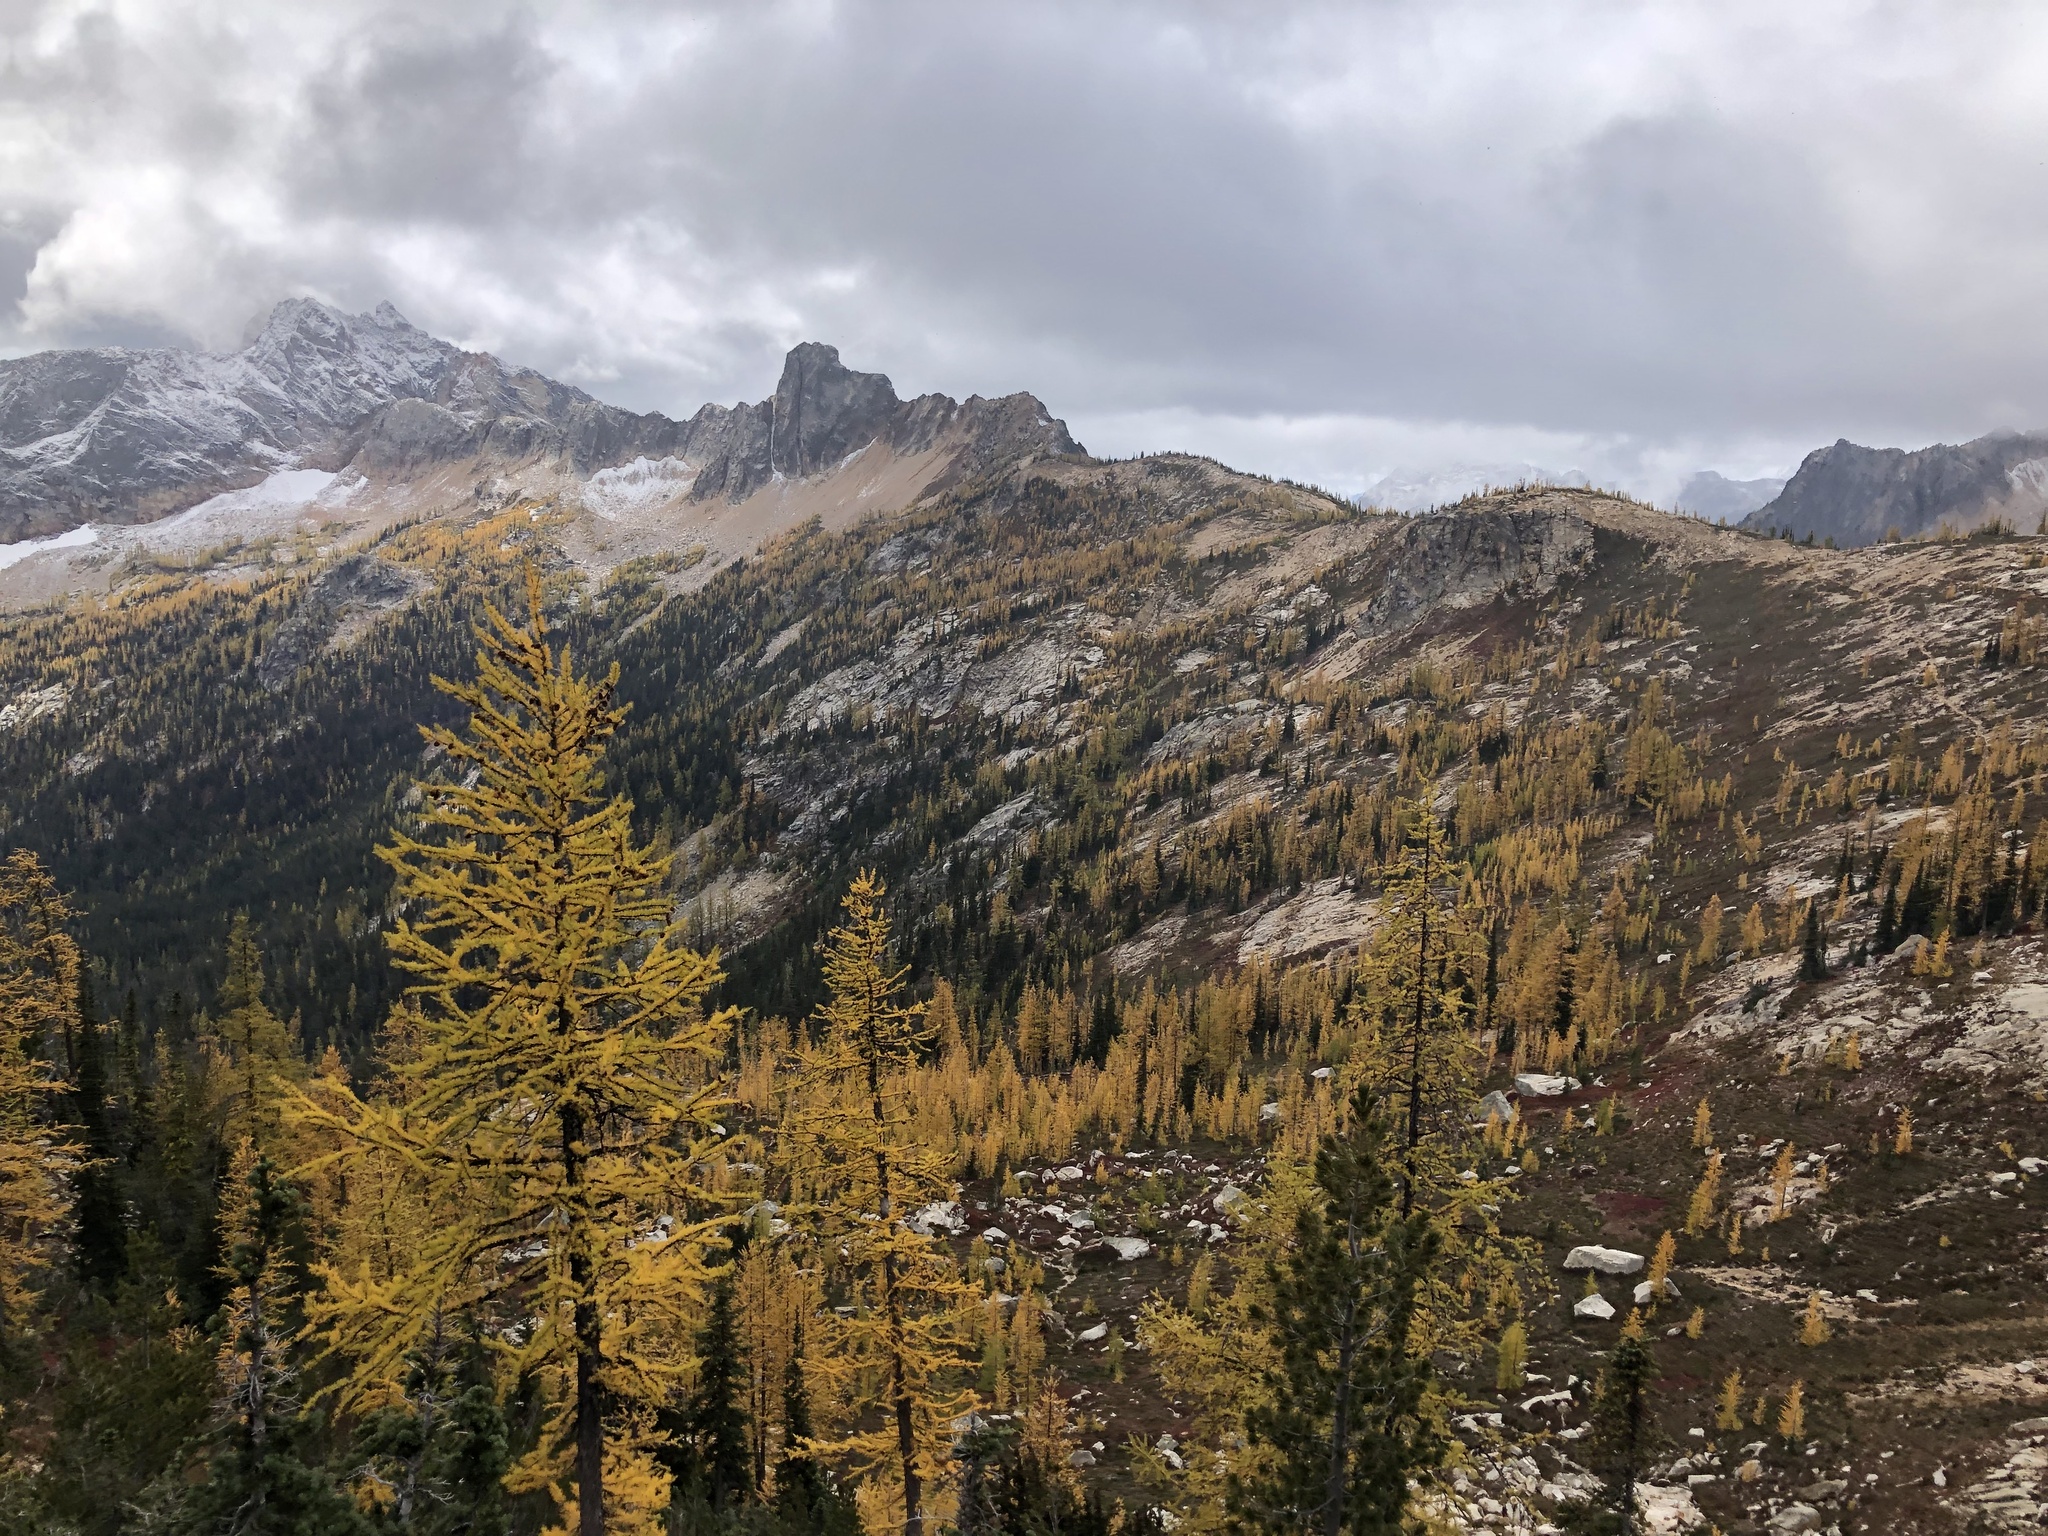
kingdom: Plantae
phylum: Tracheophyta
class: Pinopsida
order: Pinales
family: Pinaceae
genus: Larix
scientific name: Larix lyallii
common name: Alpine larch
